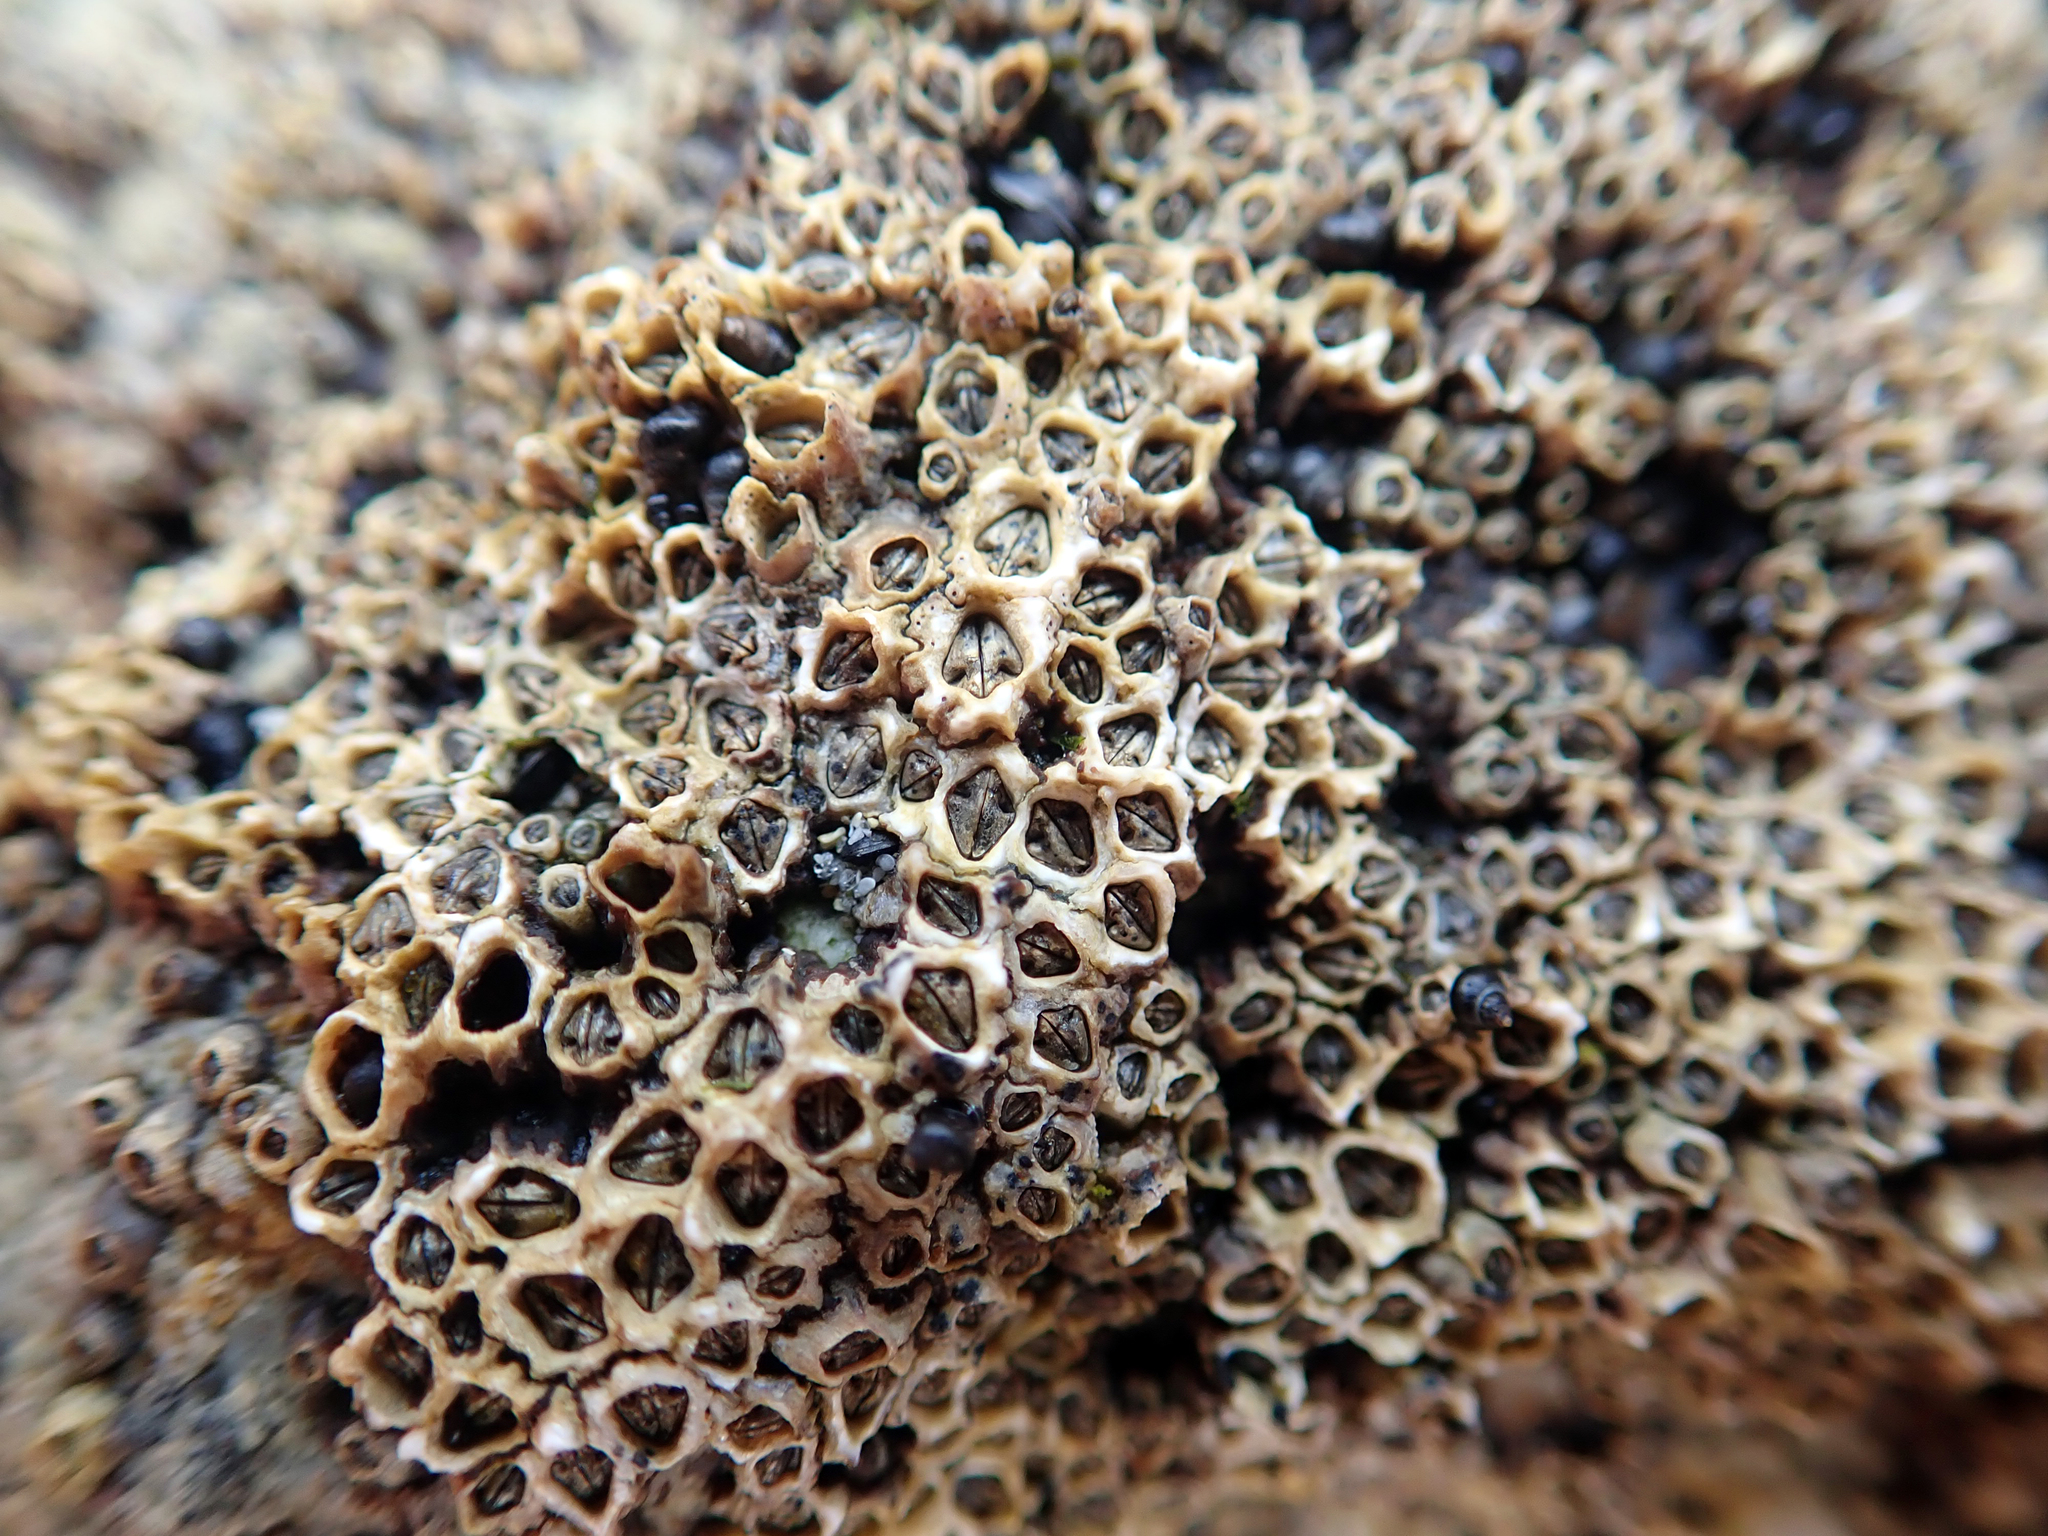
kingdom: Animalia
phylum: Arthropoda
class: Maxillopoda
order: Sessilia
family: Chthamalidae
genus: Chamaesipho
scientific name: Chamaesipho columna
